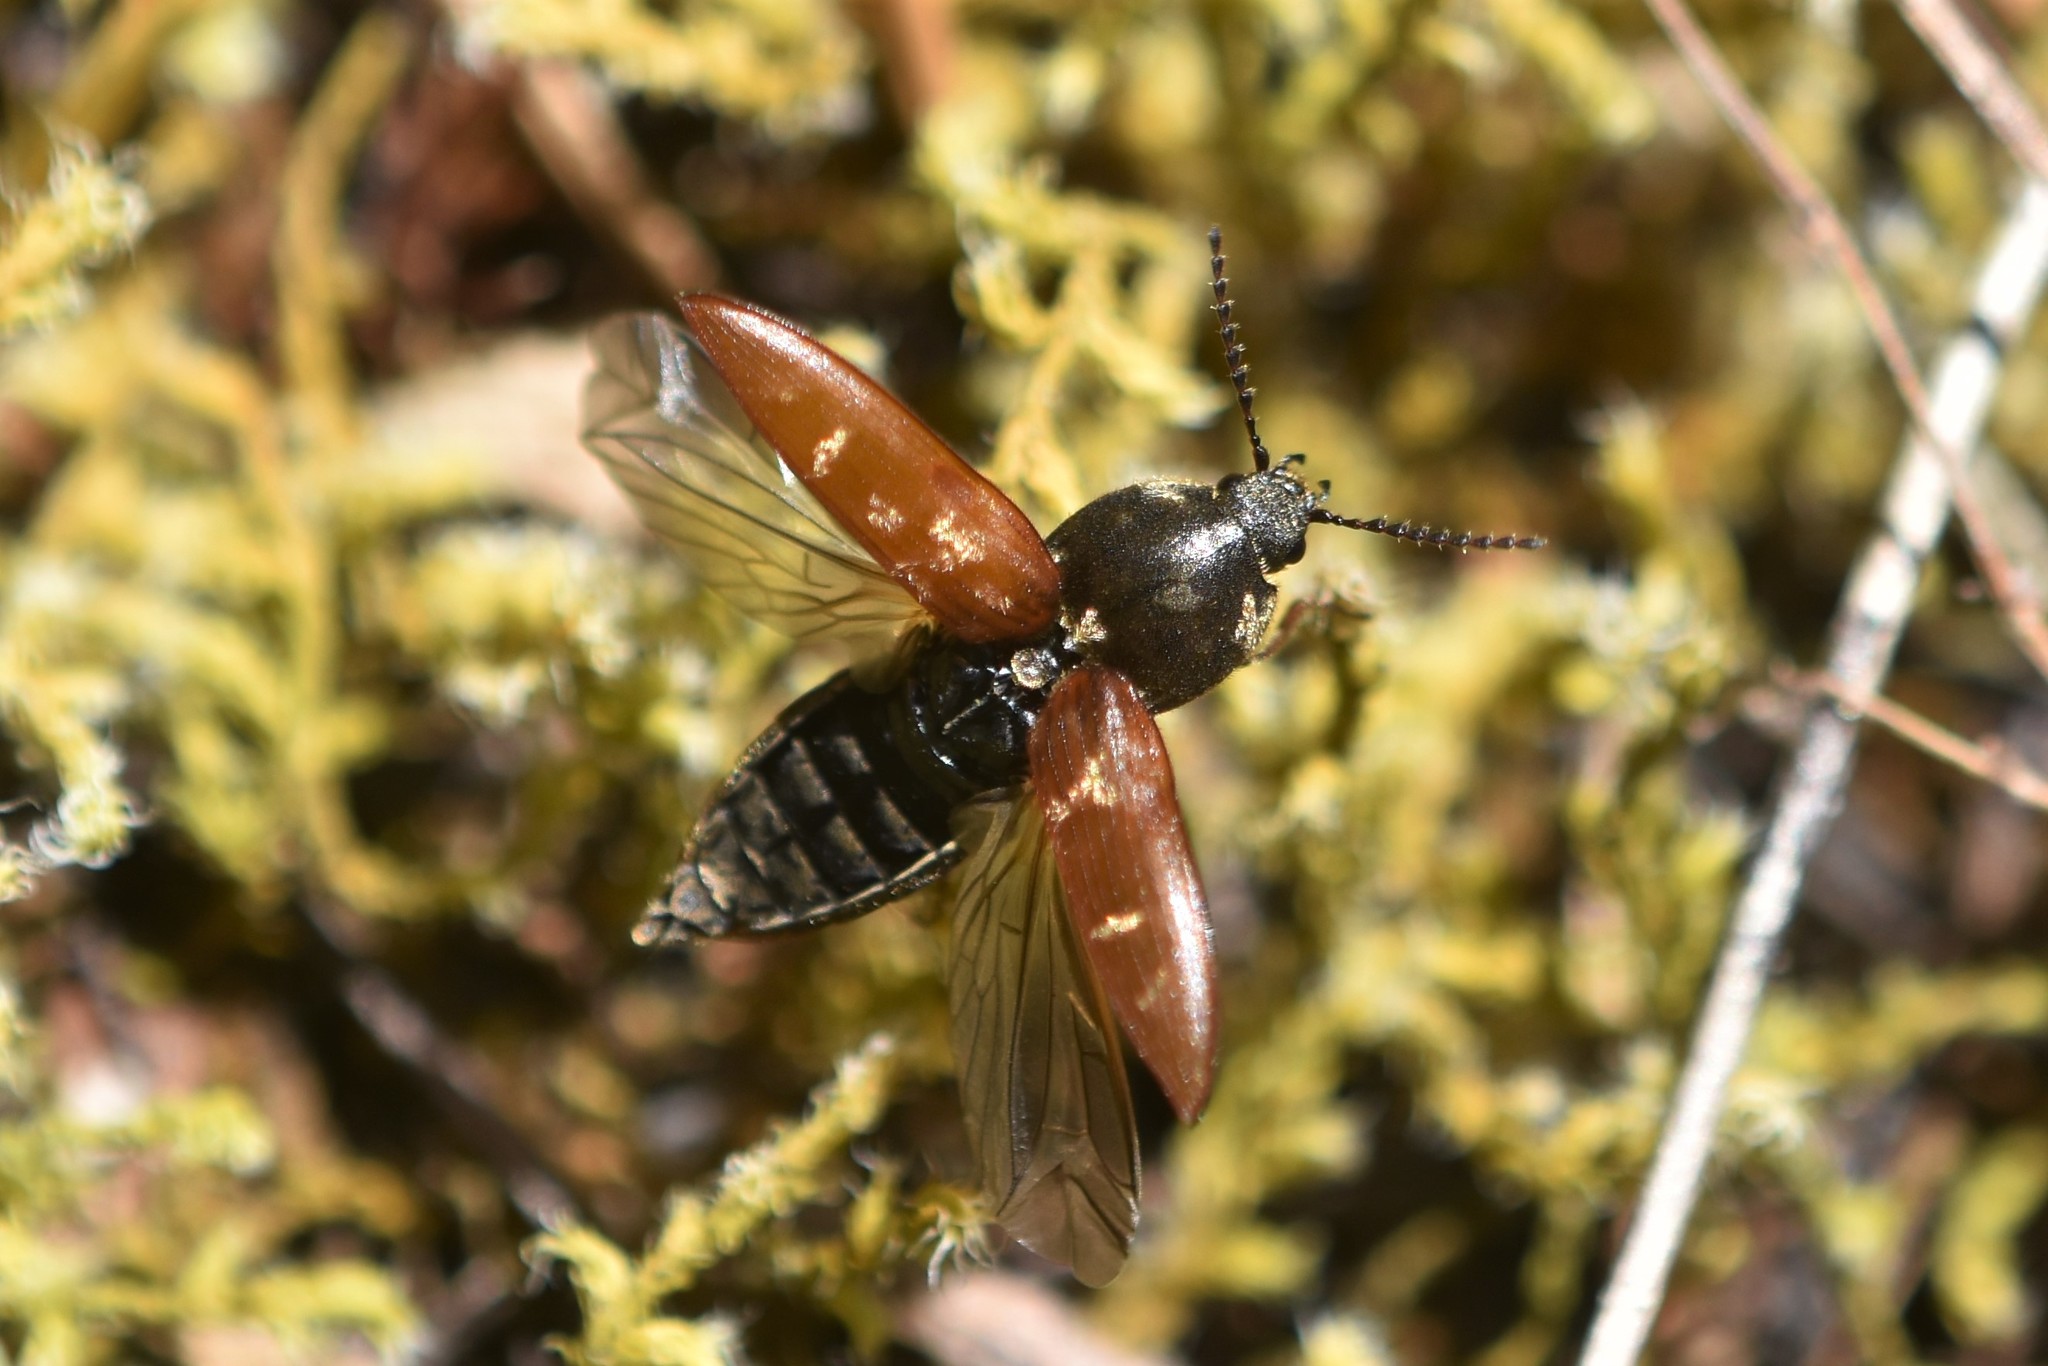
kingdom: Animalia
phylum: Arthropoda
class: Insecta
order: Coleoptera
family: Elateridae
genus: Prosternon
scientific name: Prosternon bombycinum
